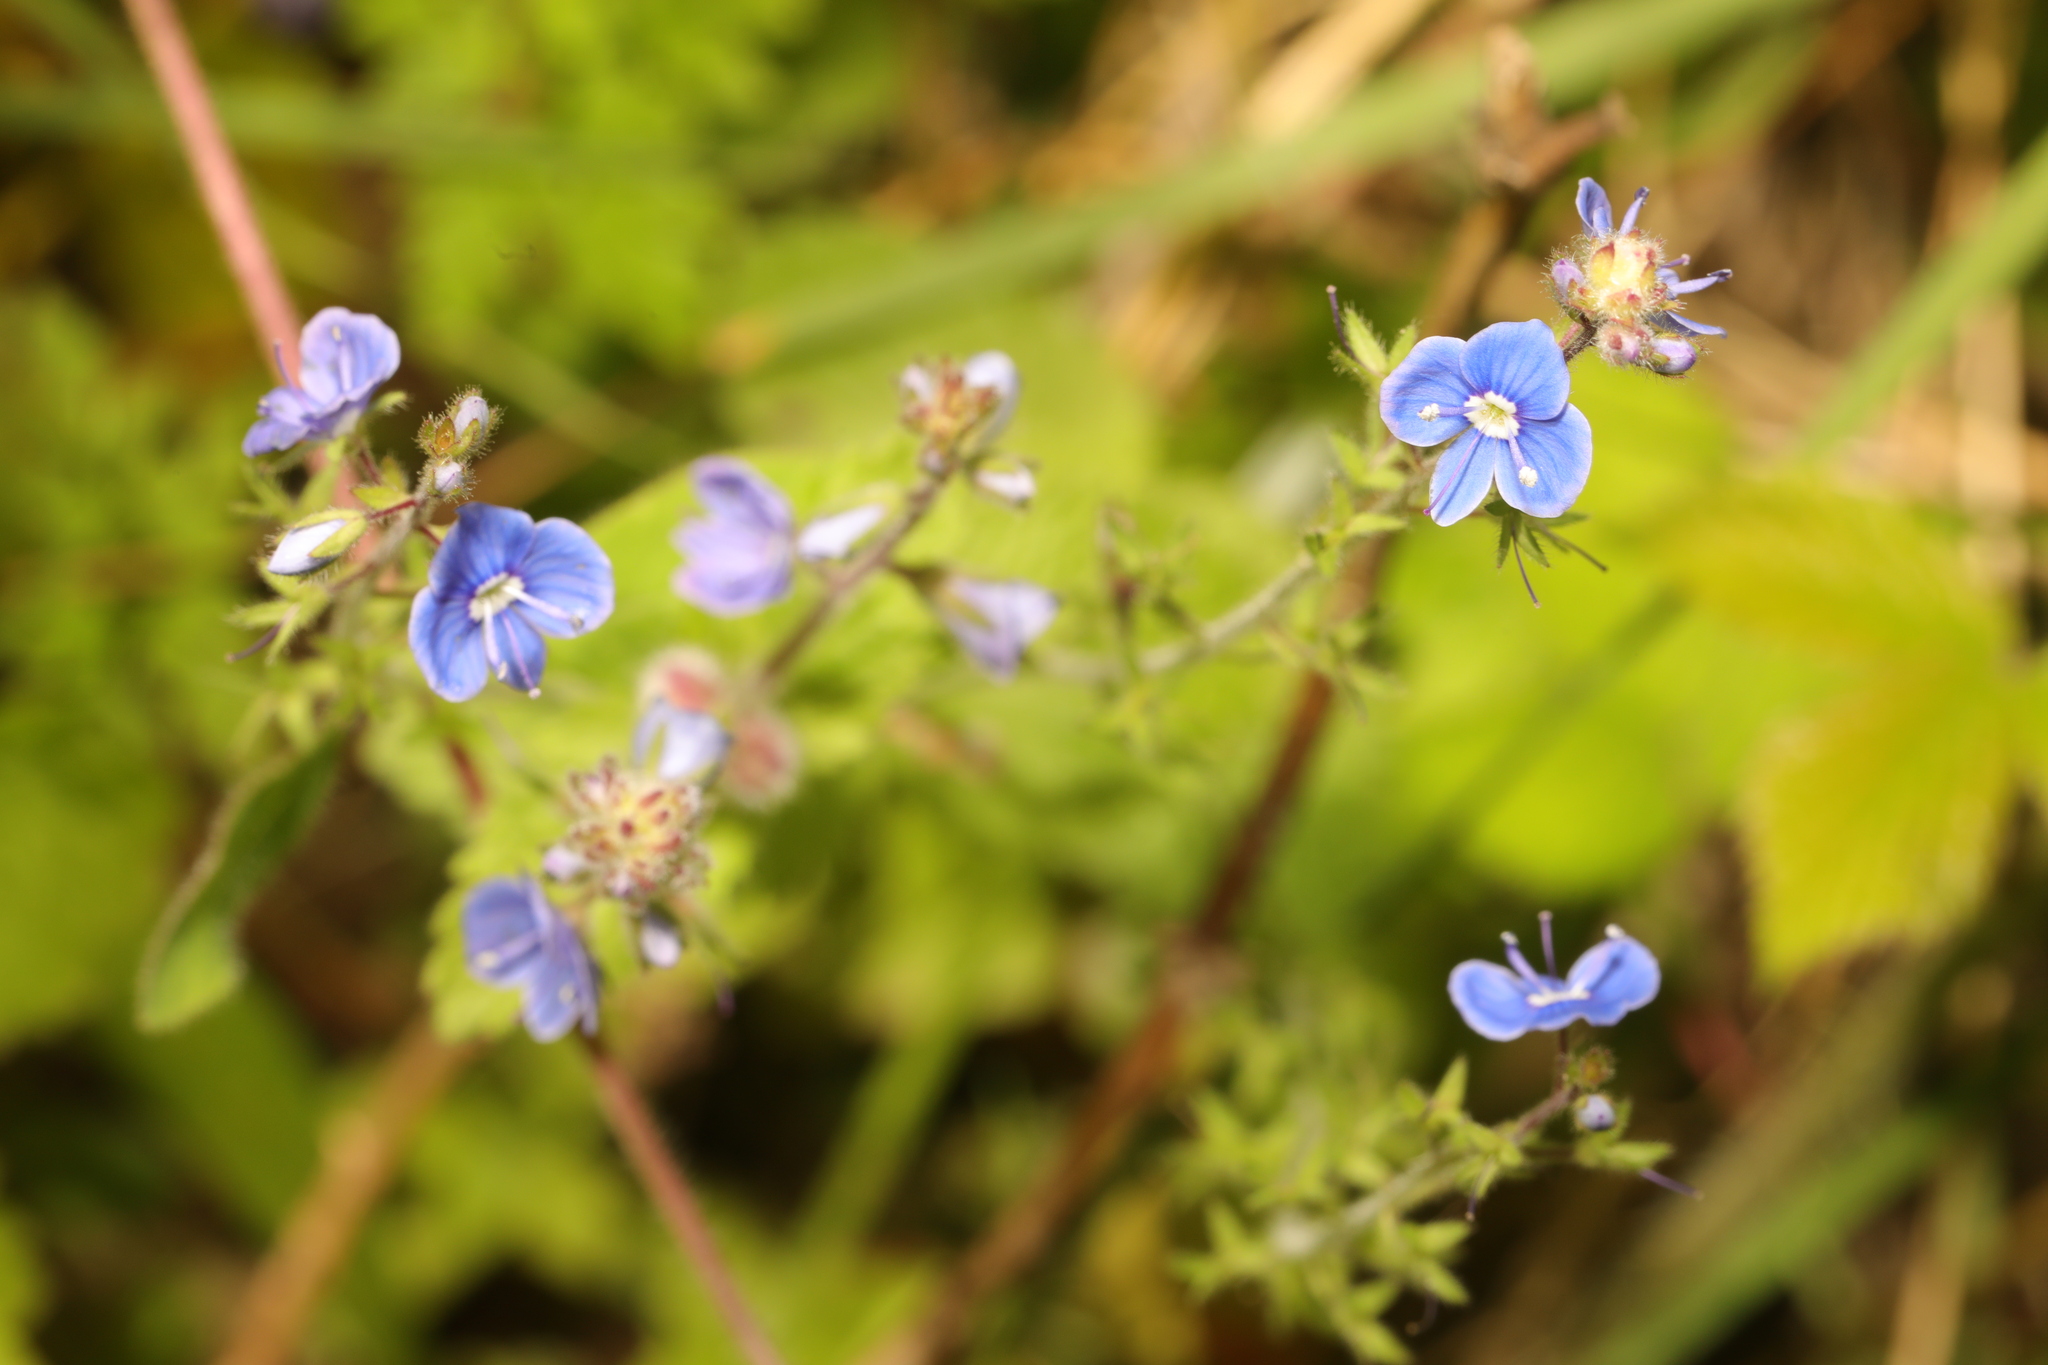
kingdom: Plantae
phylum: Tracheophyta
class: Magnoliopsida
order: Lamiales
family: Plantaginaceae
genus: Veronica
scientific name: Veronica chamaedrys
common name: Germander speedwell
